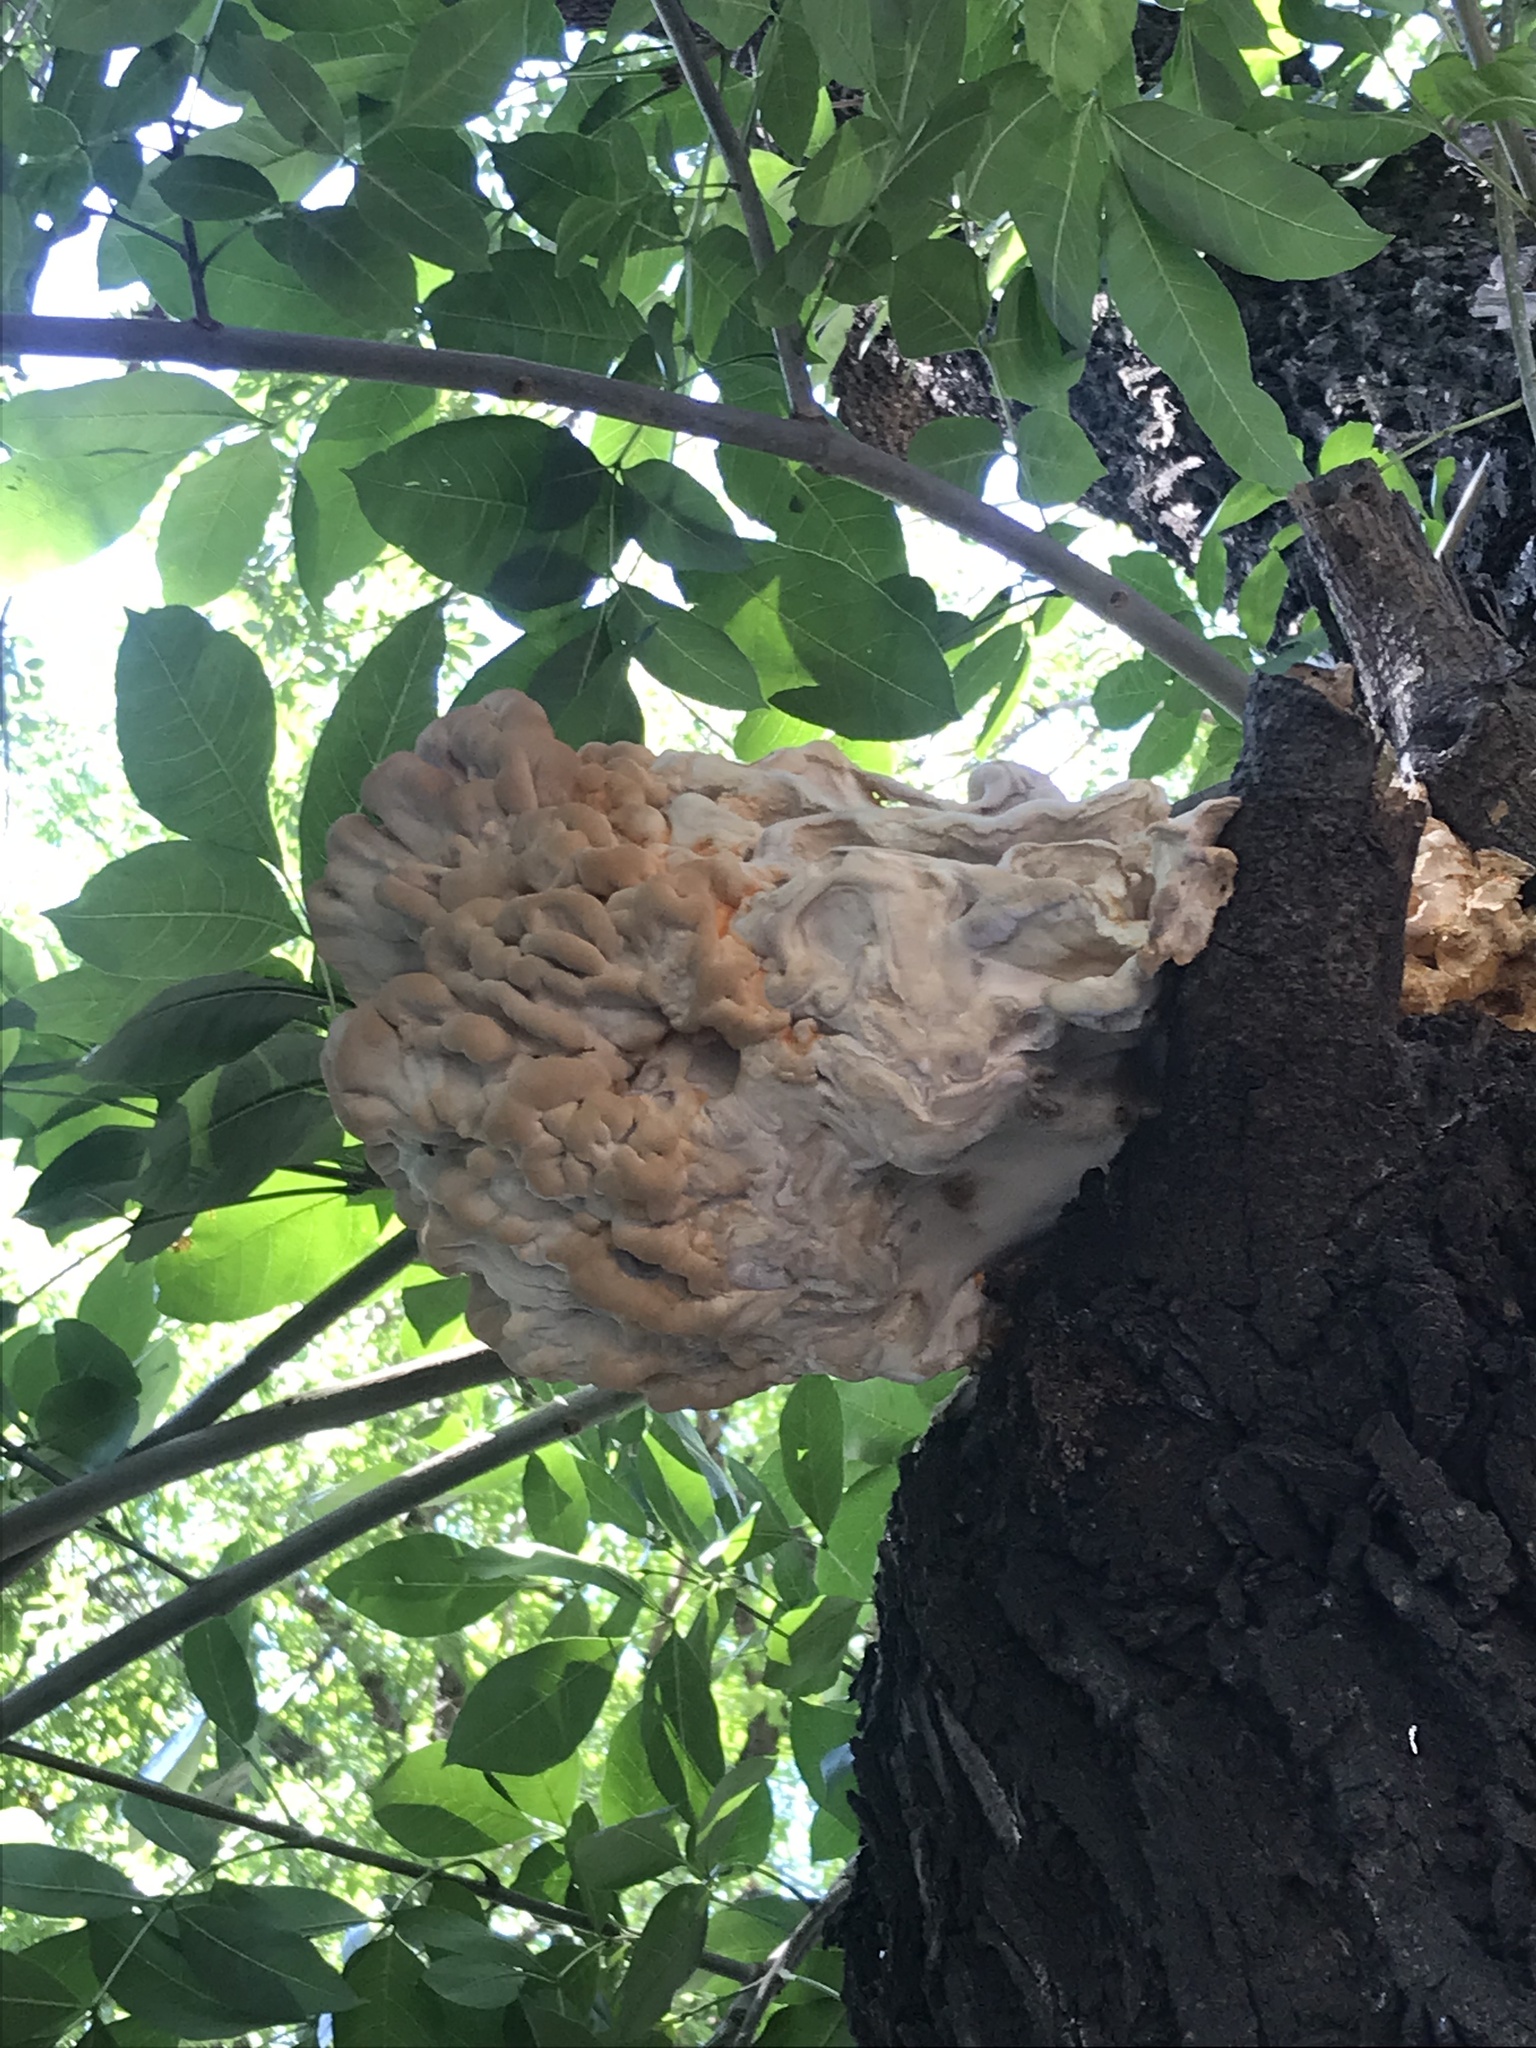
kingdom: Fungi
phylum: Basidiomycota
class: Agaricomycetes
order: Polyporales
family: Laetiporaceae
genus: Laetiporus
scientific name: Laetiporus sulphureus
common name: Chicken of the woods
